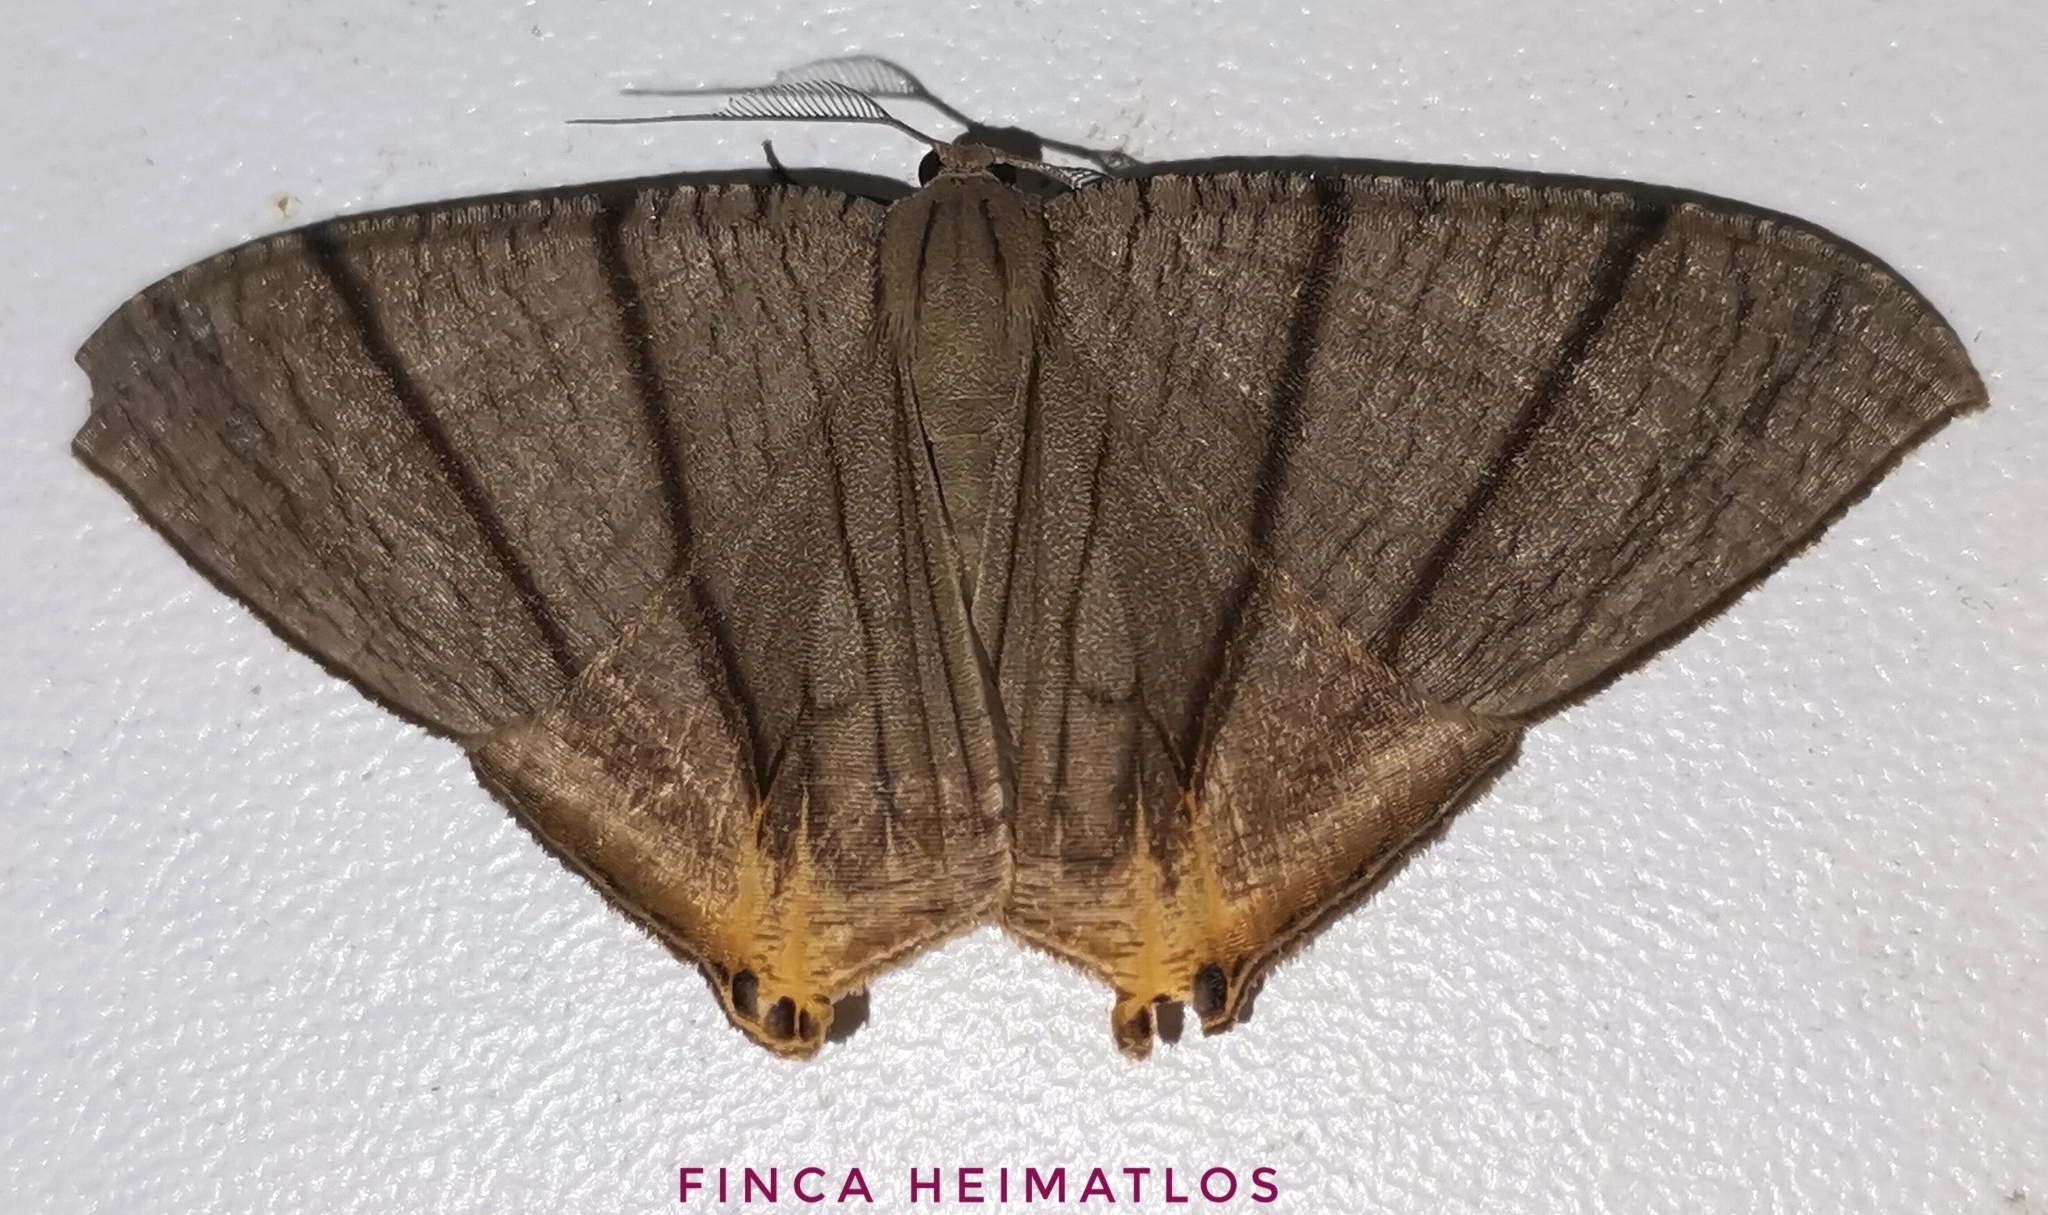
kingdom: Animalia
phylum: Arthropoda
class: Insecta
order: Lepidoptera
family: Uraniidae
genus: Psamathia
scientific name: Psamathia impunctata
